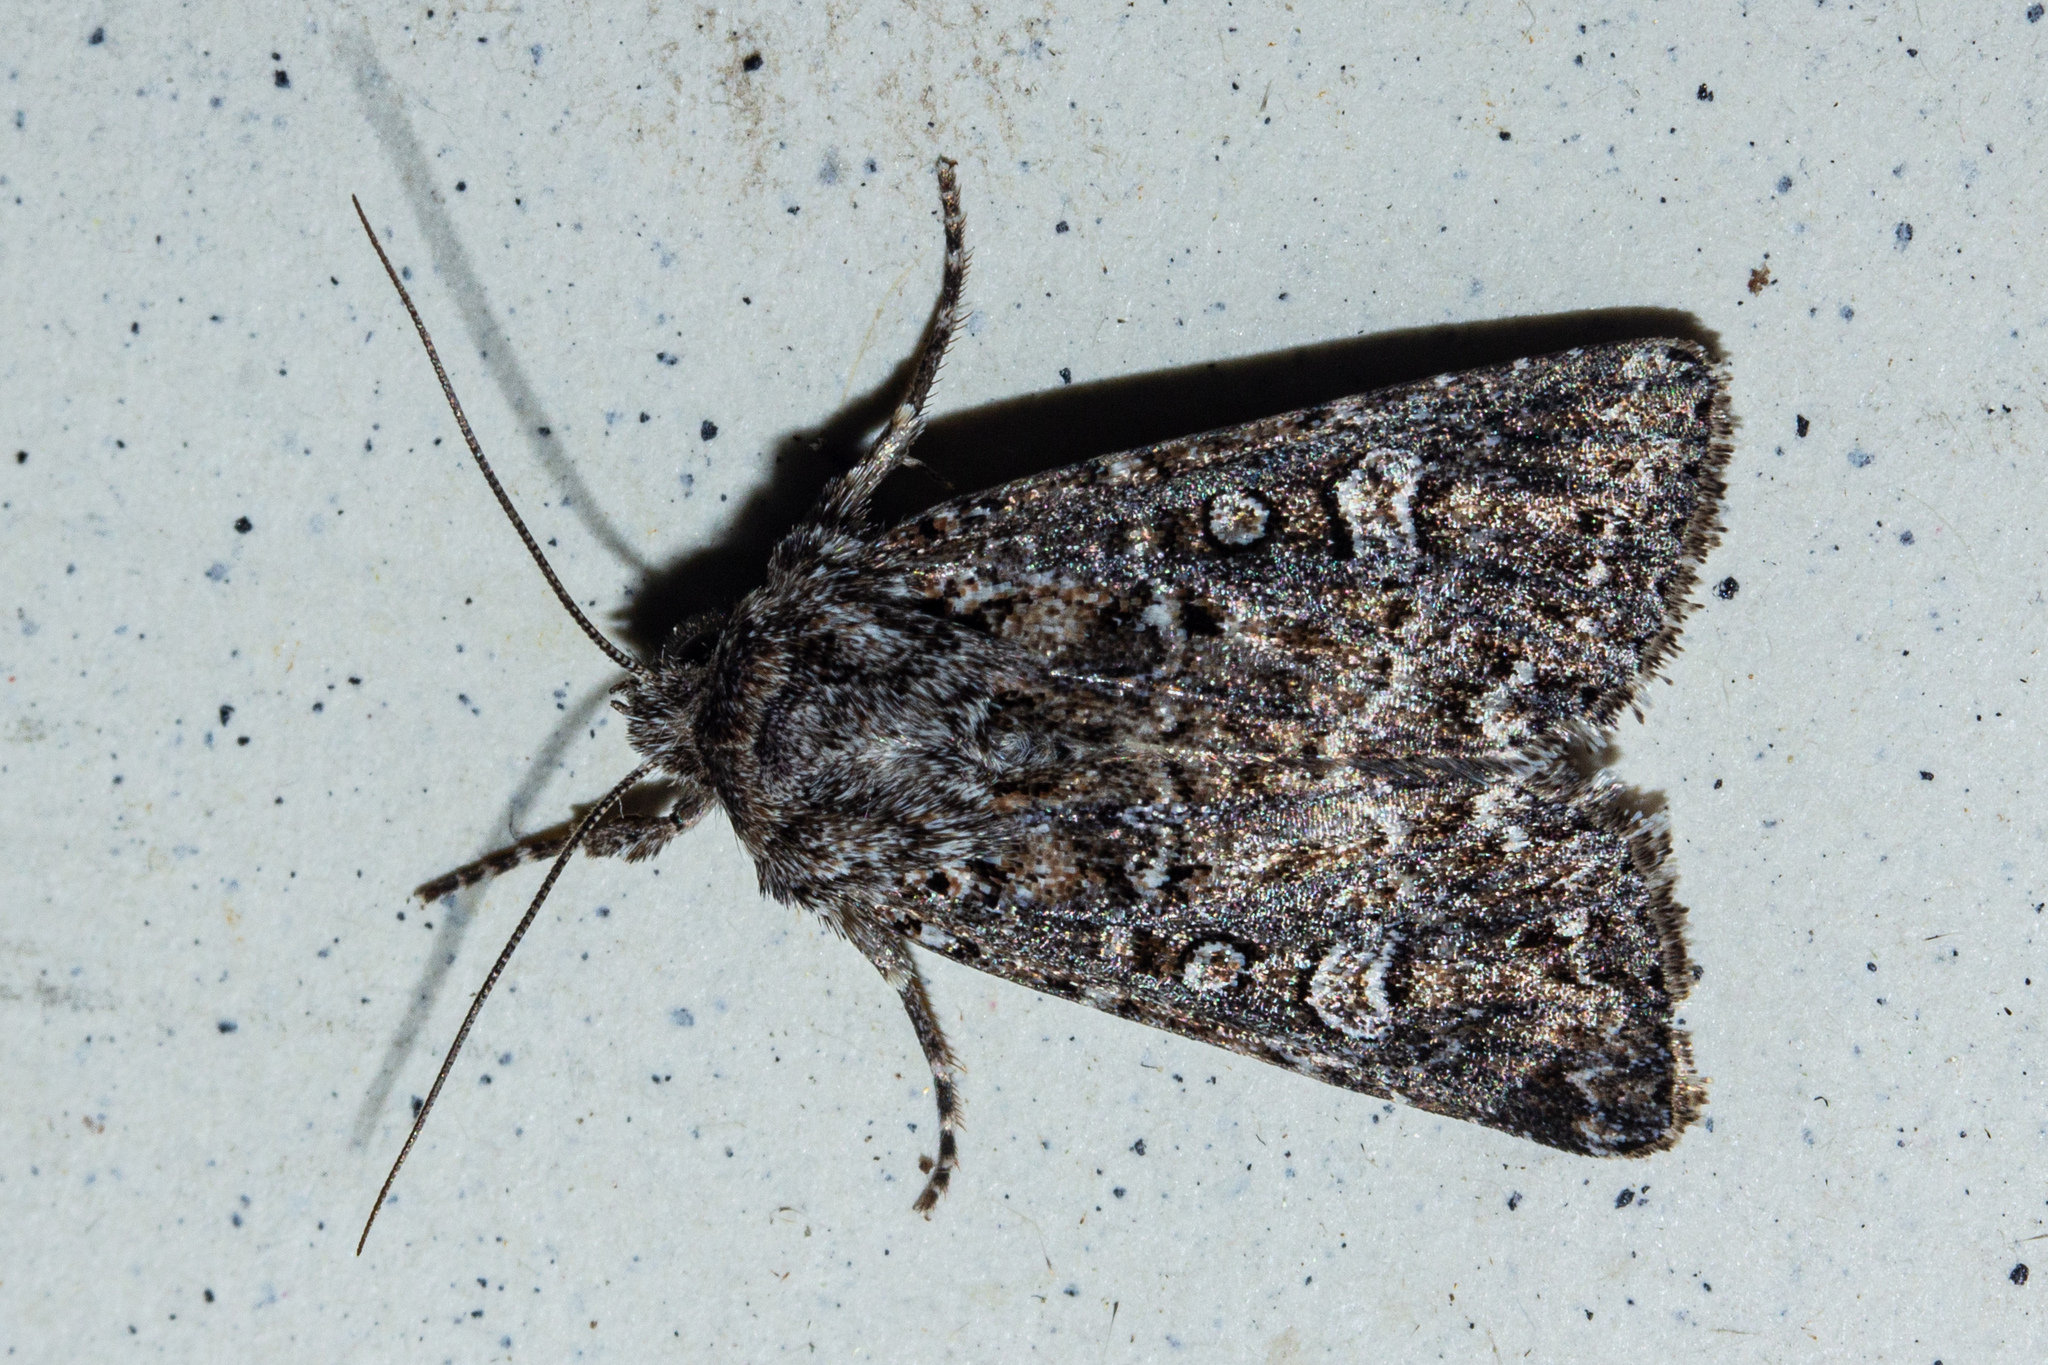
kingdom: Animalia
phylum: Arthropoda
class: Insecta
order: Lepidoptera
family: Noctuidae
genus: Ichneutica
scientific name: Ichneutica lithias
